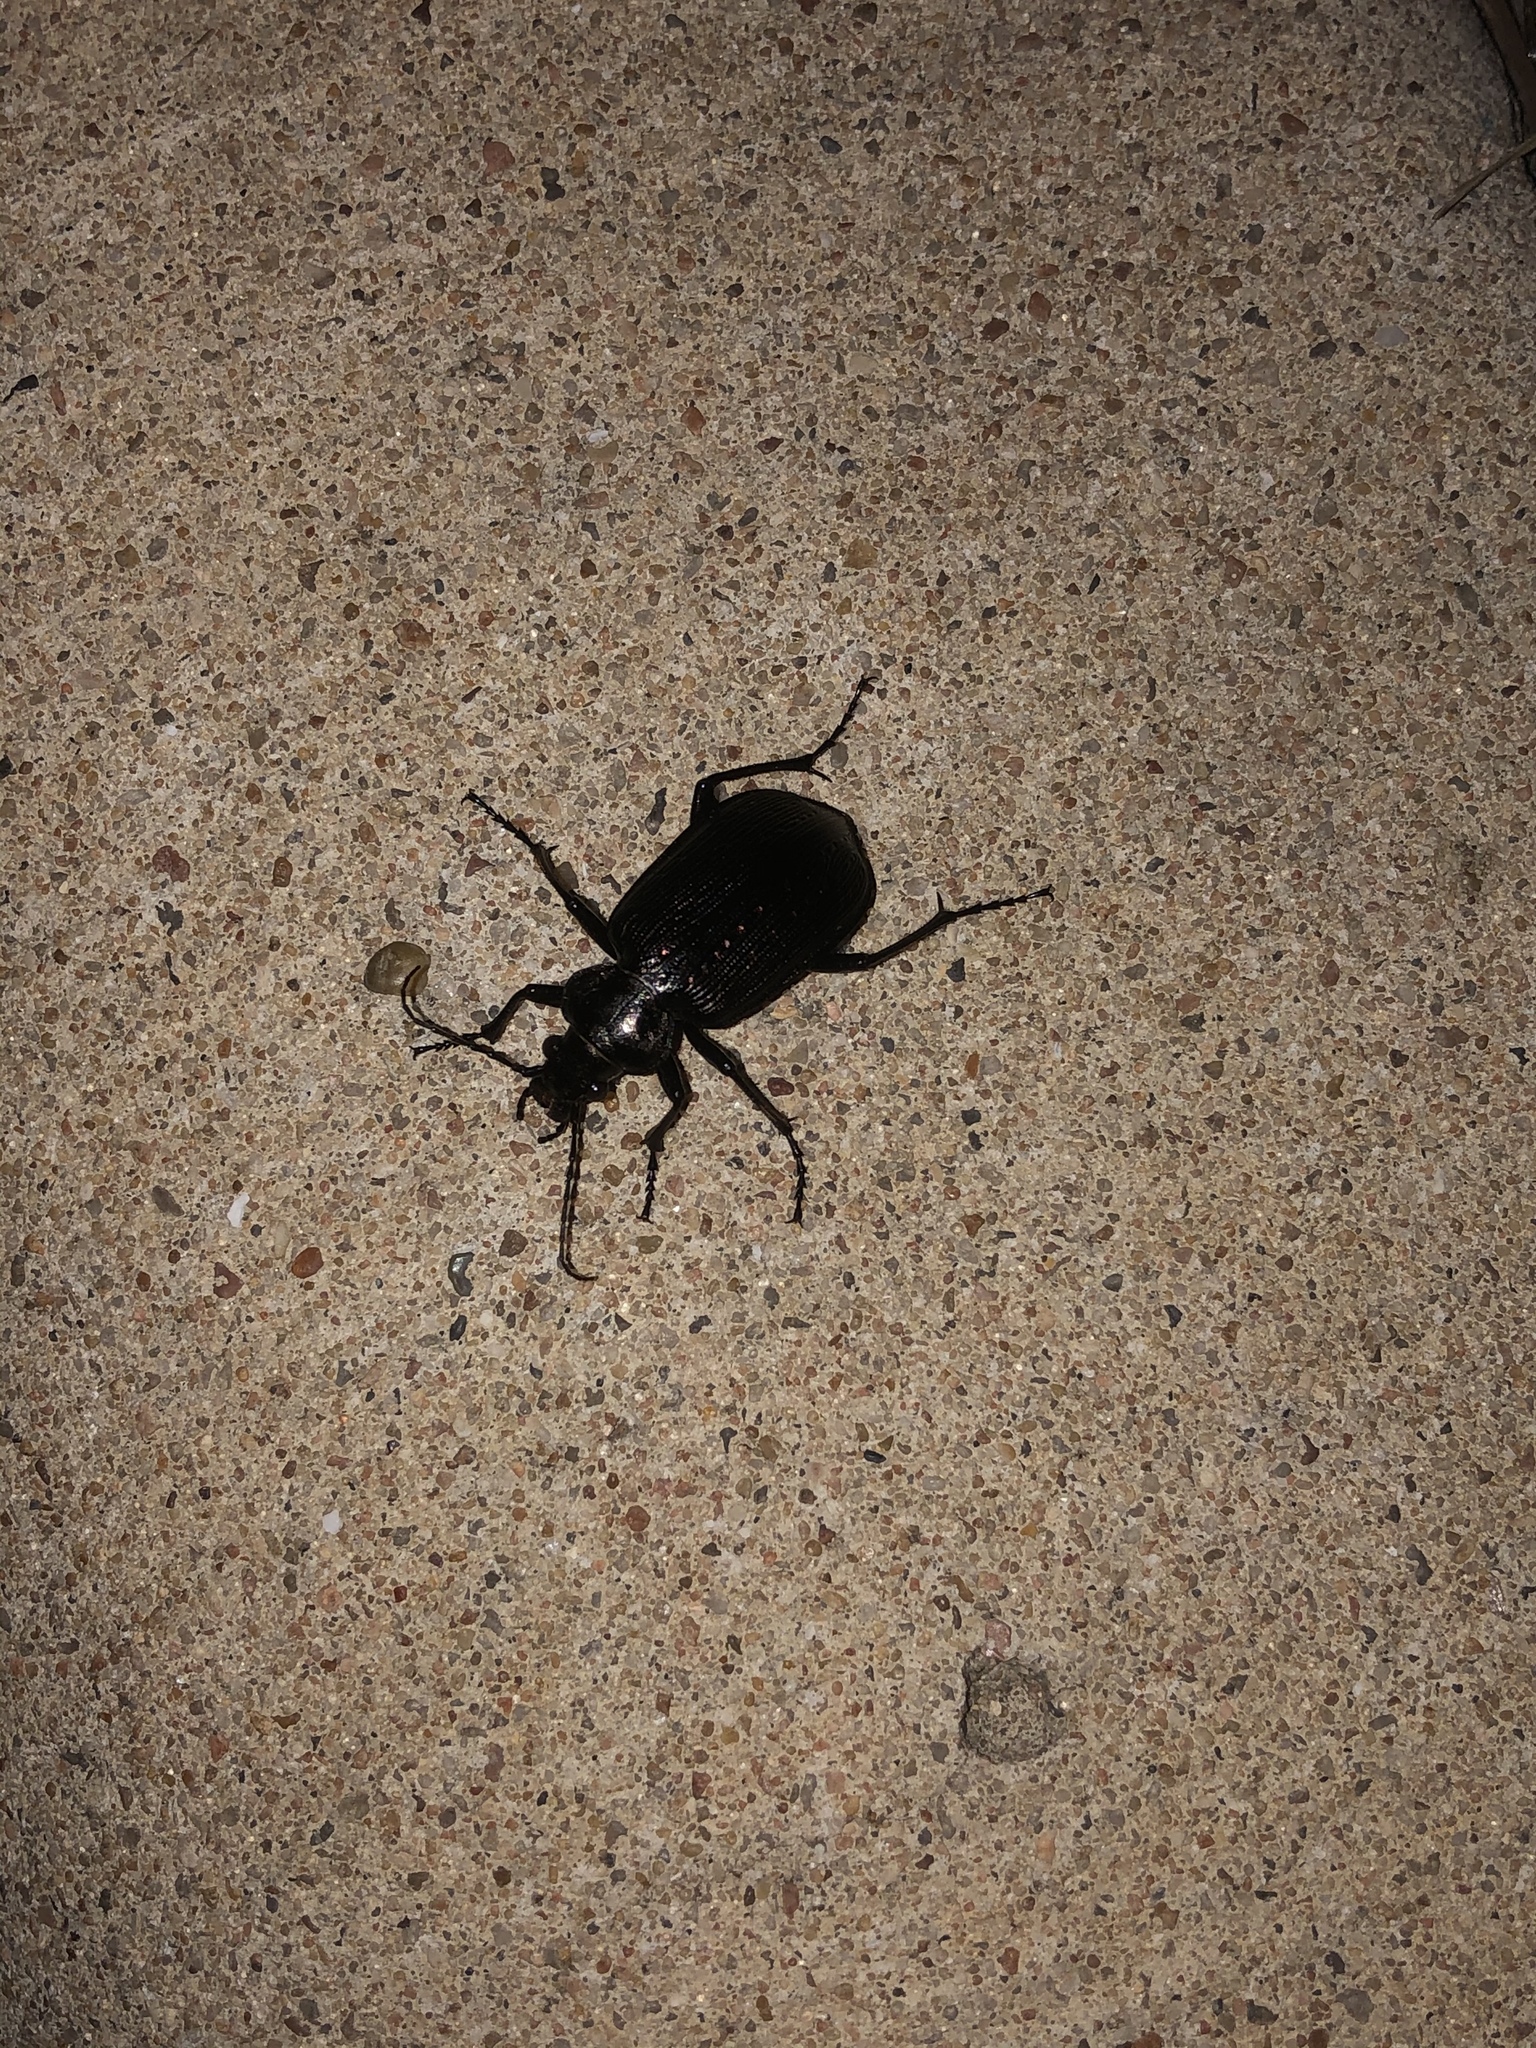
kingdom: Animalia
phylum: Arthropoda
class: Insecta
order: Coleoptera
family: Carabidae
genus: Calosoma
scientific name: Calosoma sayi
